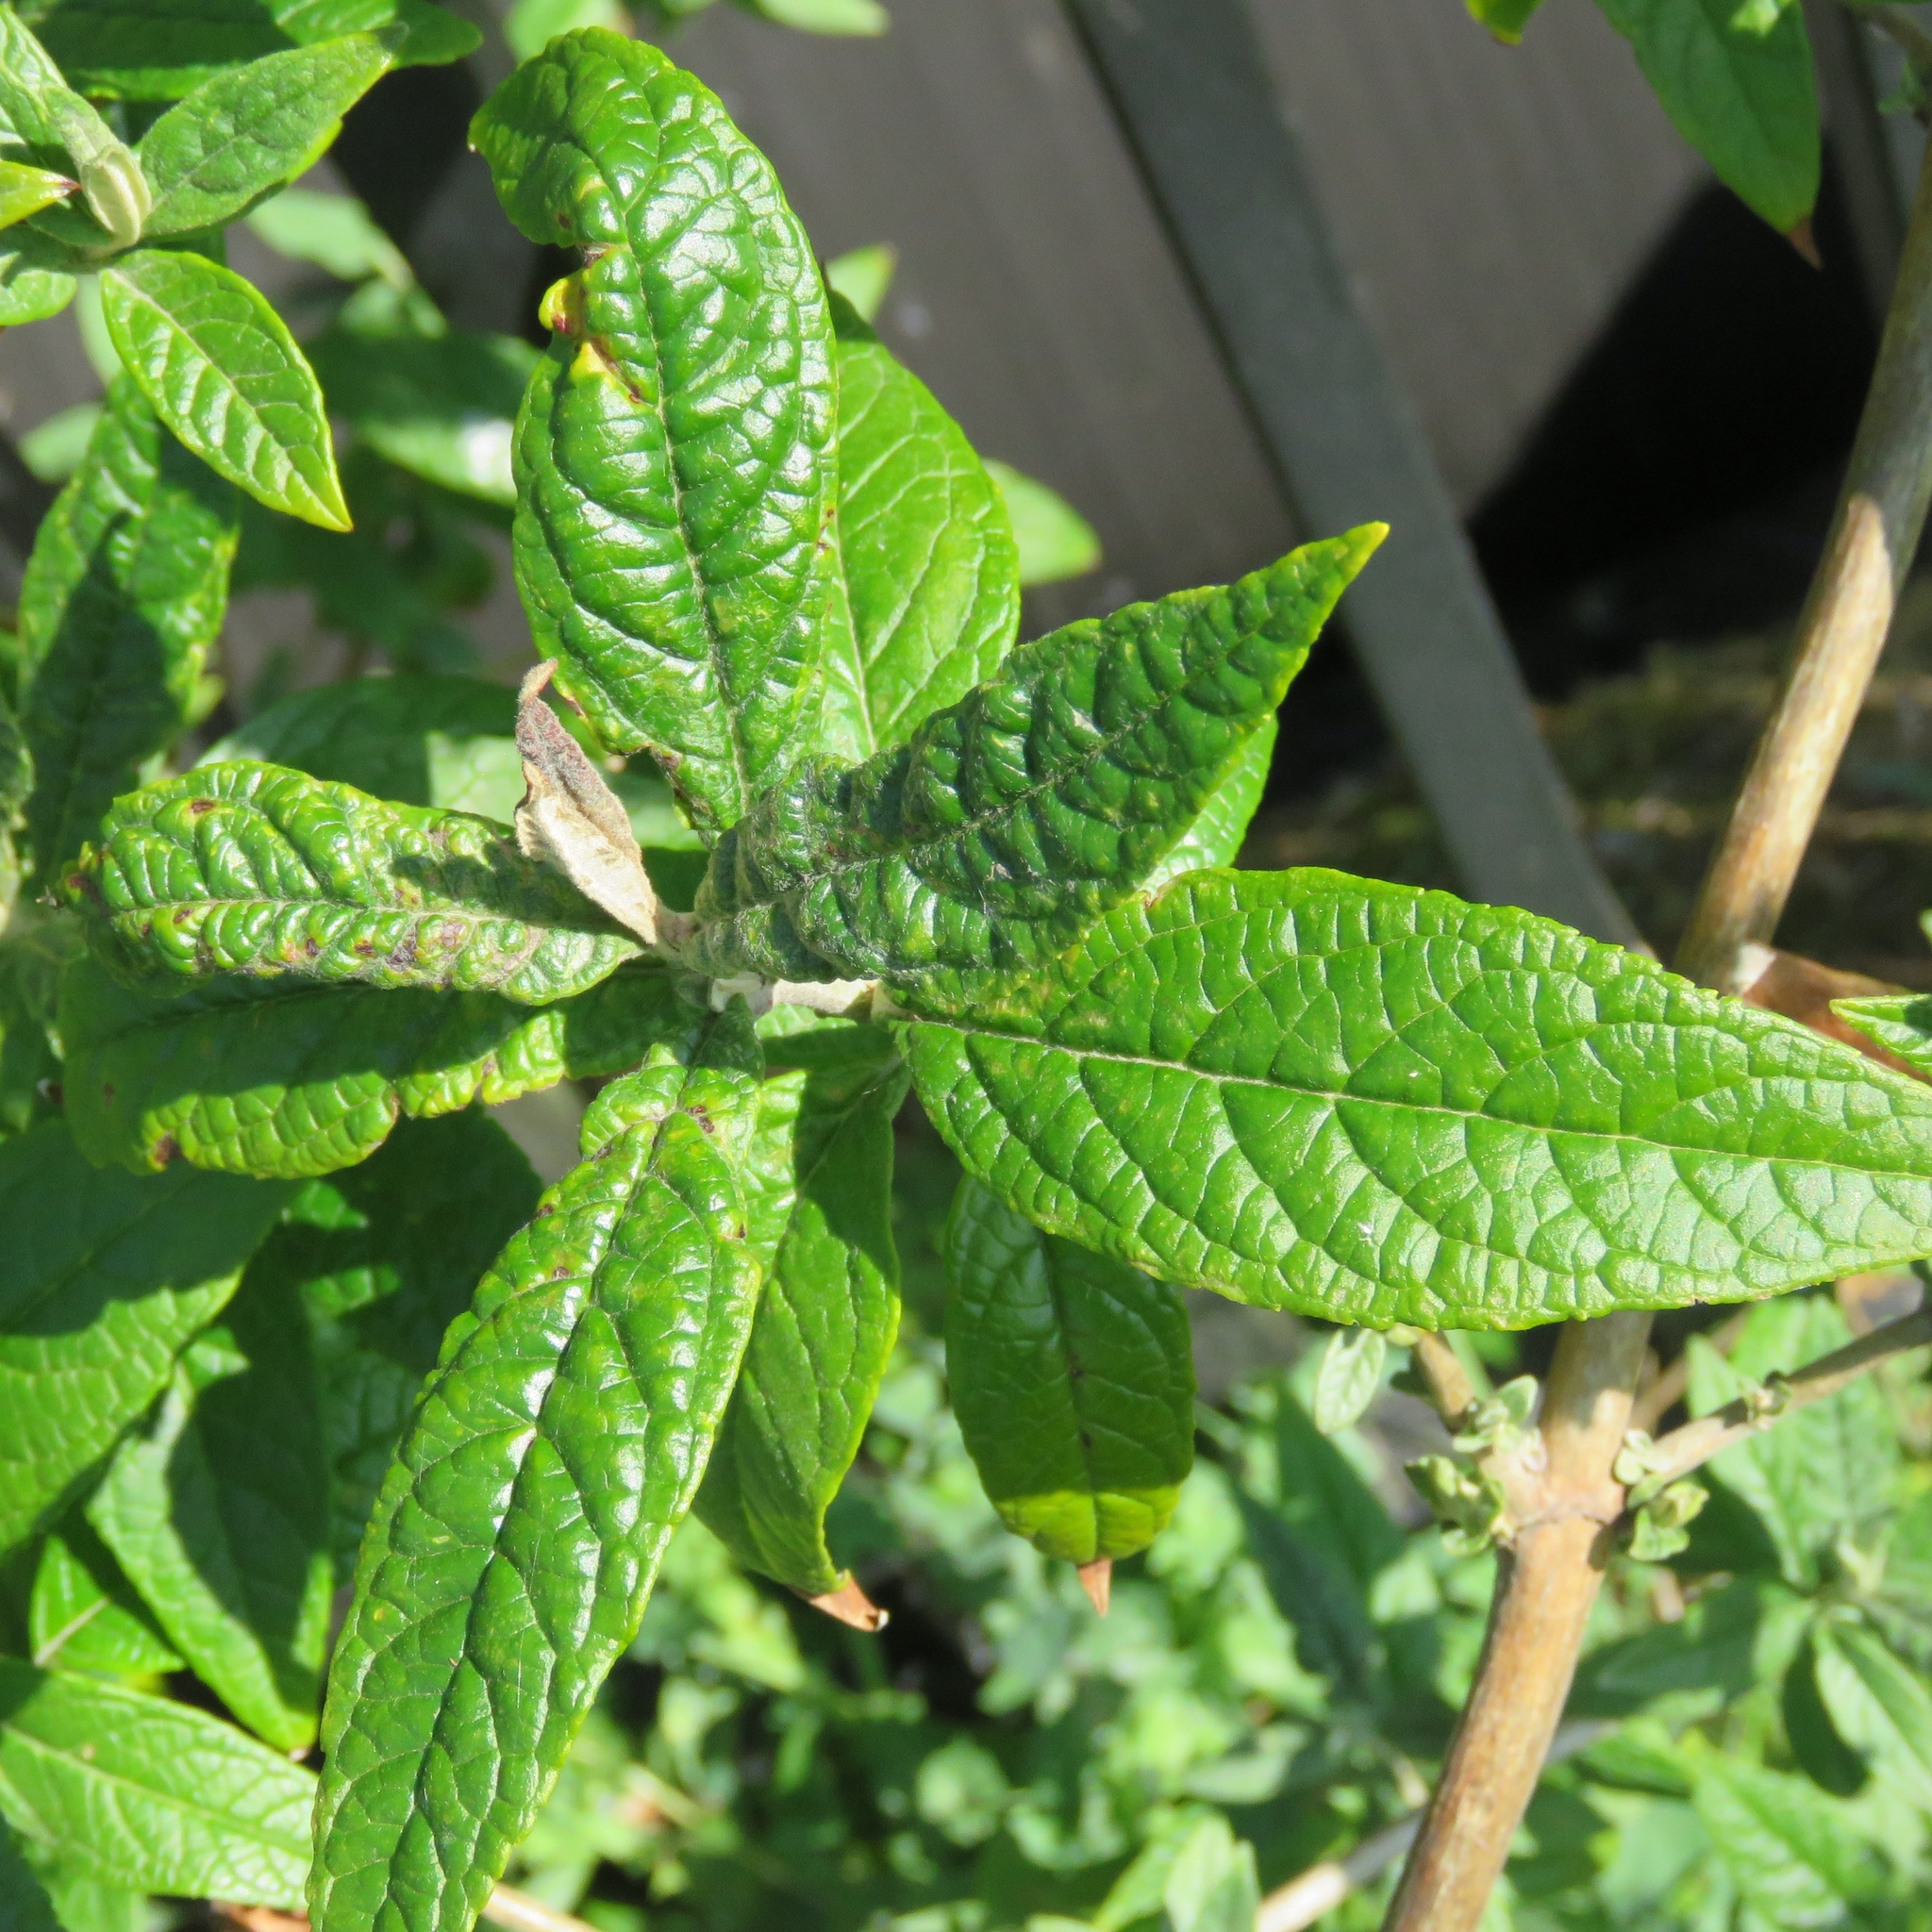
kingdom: Plantae
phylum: Tracheophyta
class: Magnoliopsida
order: Lamiales
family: Scrophulariaceae
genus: Buddleja
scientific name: Buddleja davidii
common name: Butterfly-bush
